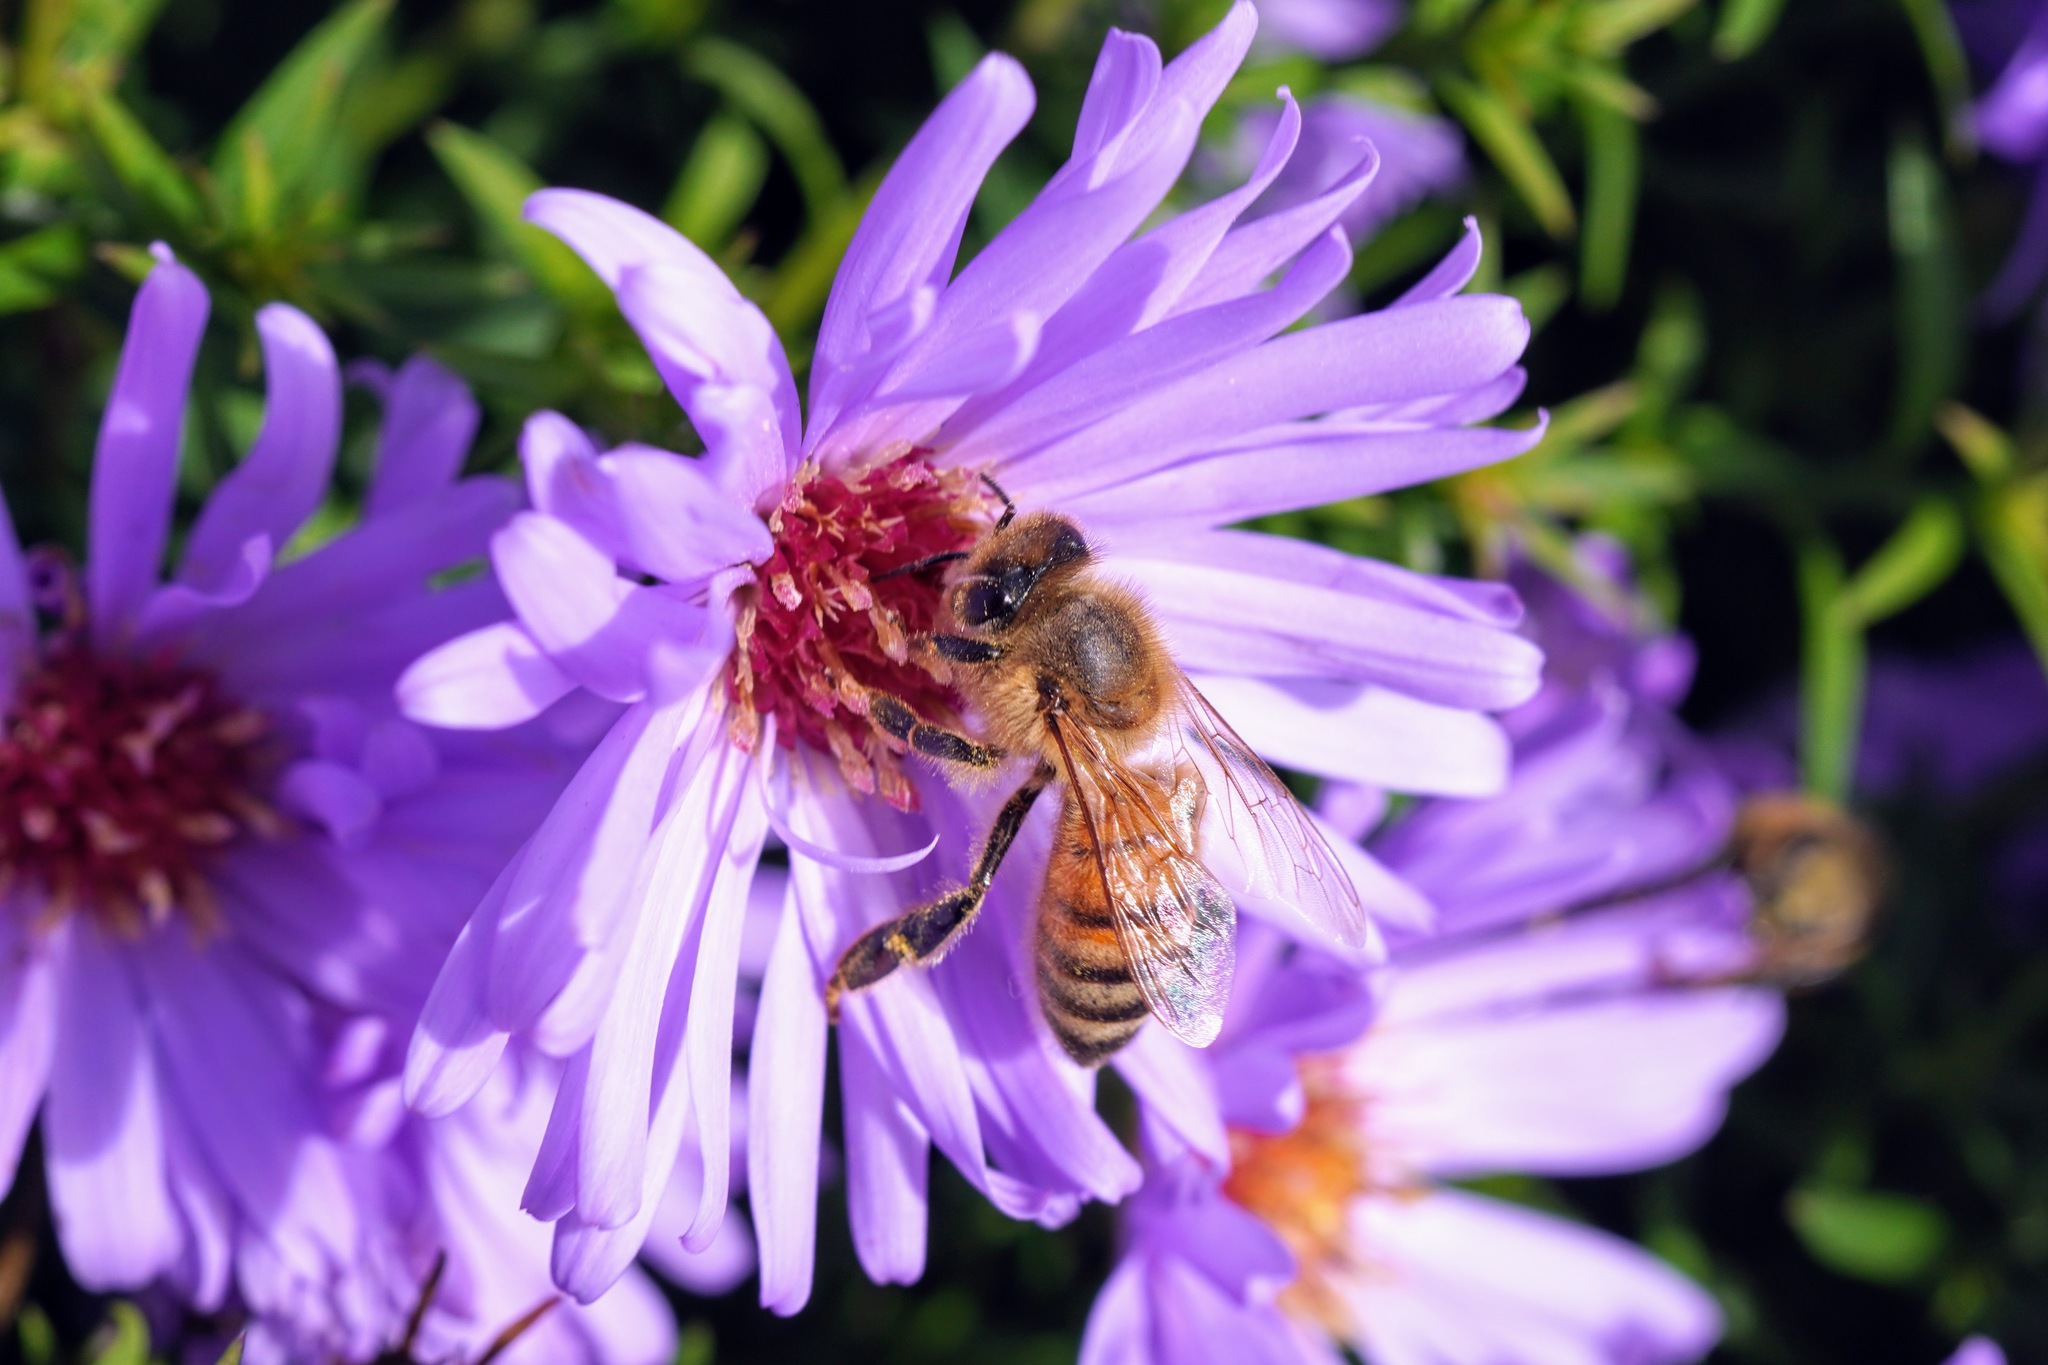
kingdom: Animalia
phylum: Arthropoda
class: Insecta
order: Hymenoptera
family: Apidae
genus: Apis
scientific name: Apis mellifera
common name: Honey bee
